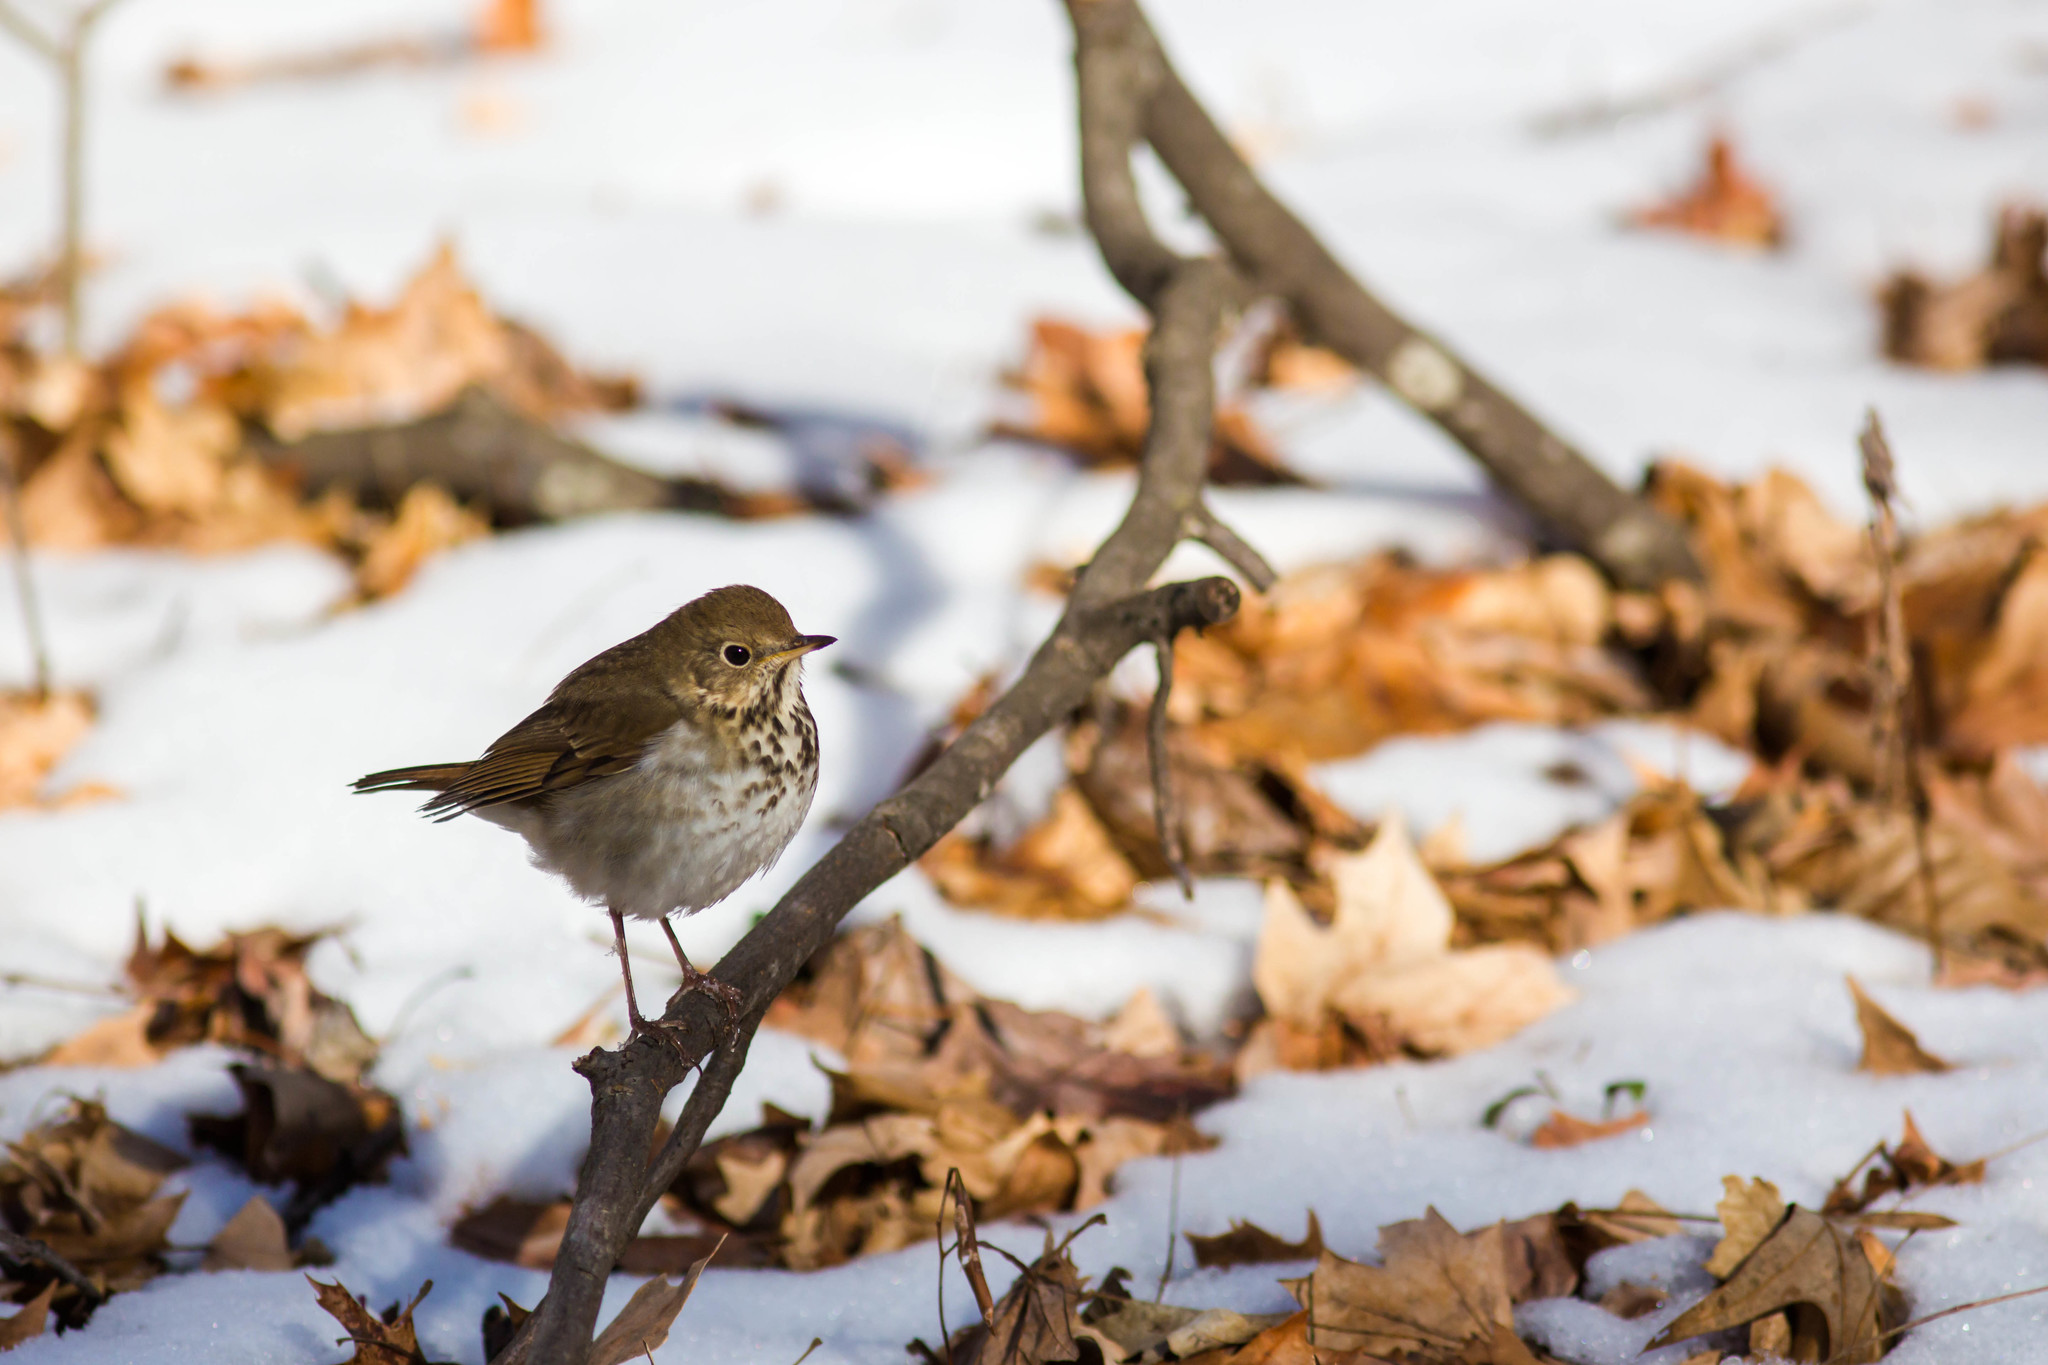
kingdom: Animalia
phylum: Chordata
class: Aves
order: Passeriformes
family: Turdidae
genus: Catharus
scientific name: Catharus guttatus
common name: Hermit thrush
